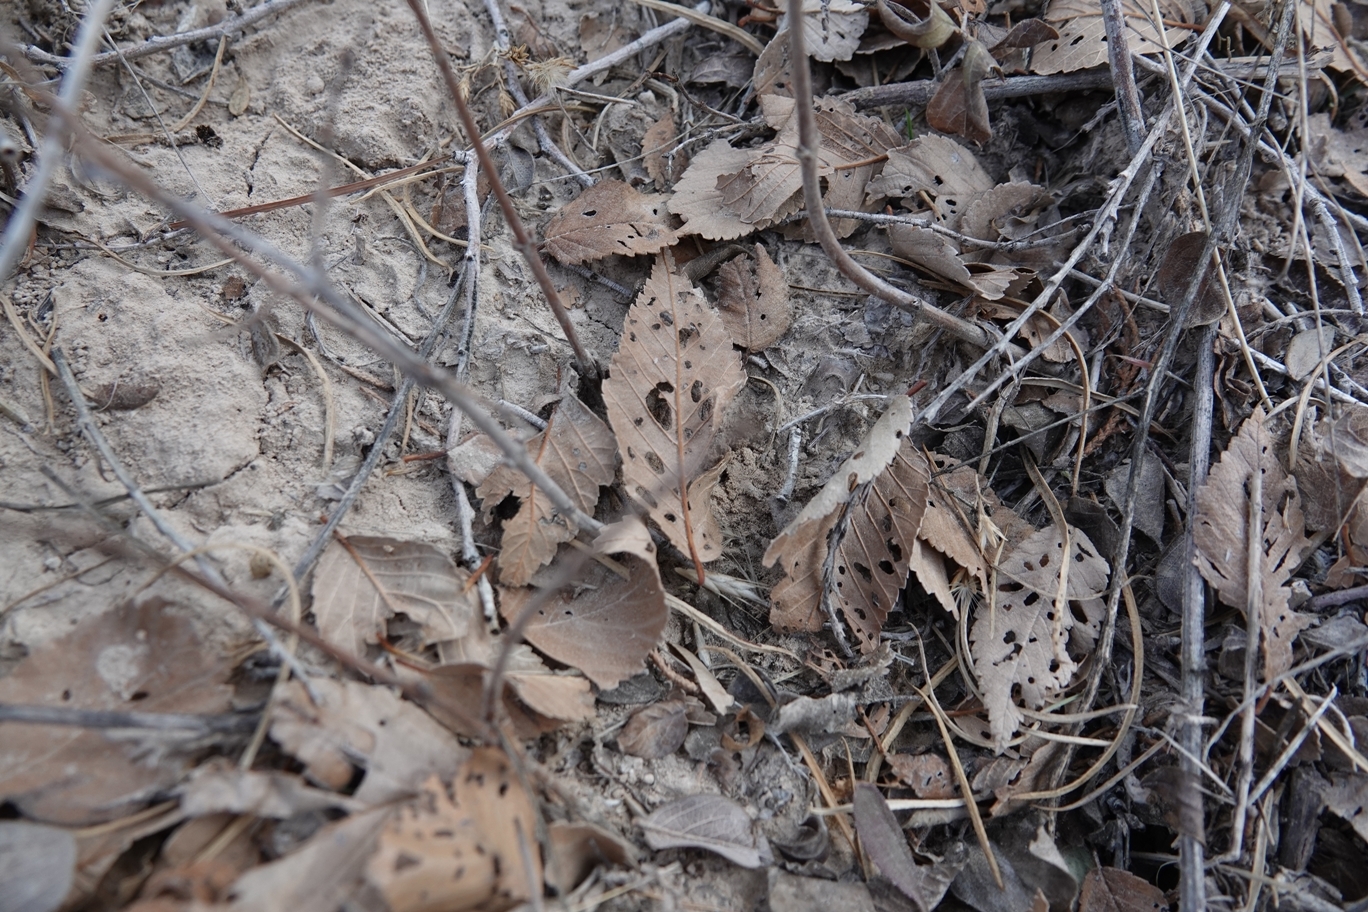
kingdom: Plantae
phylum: Tracheophyta
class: Magnoliopsida
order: Rosales
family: Ulmaceae
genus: Ulmus
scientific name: Ulmus pumila
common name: Siberian elm
